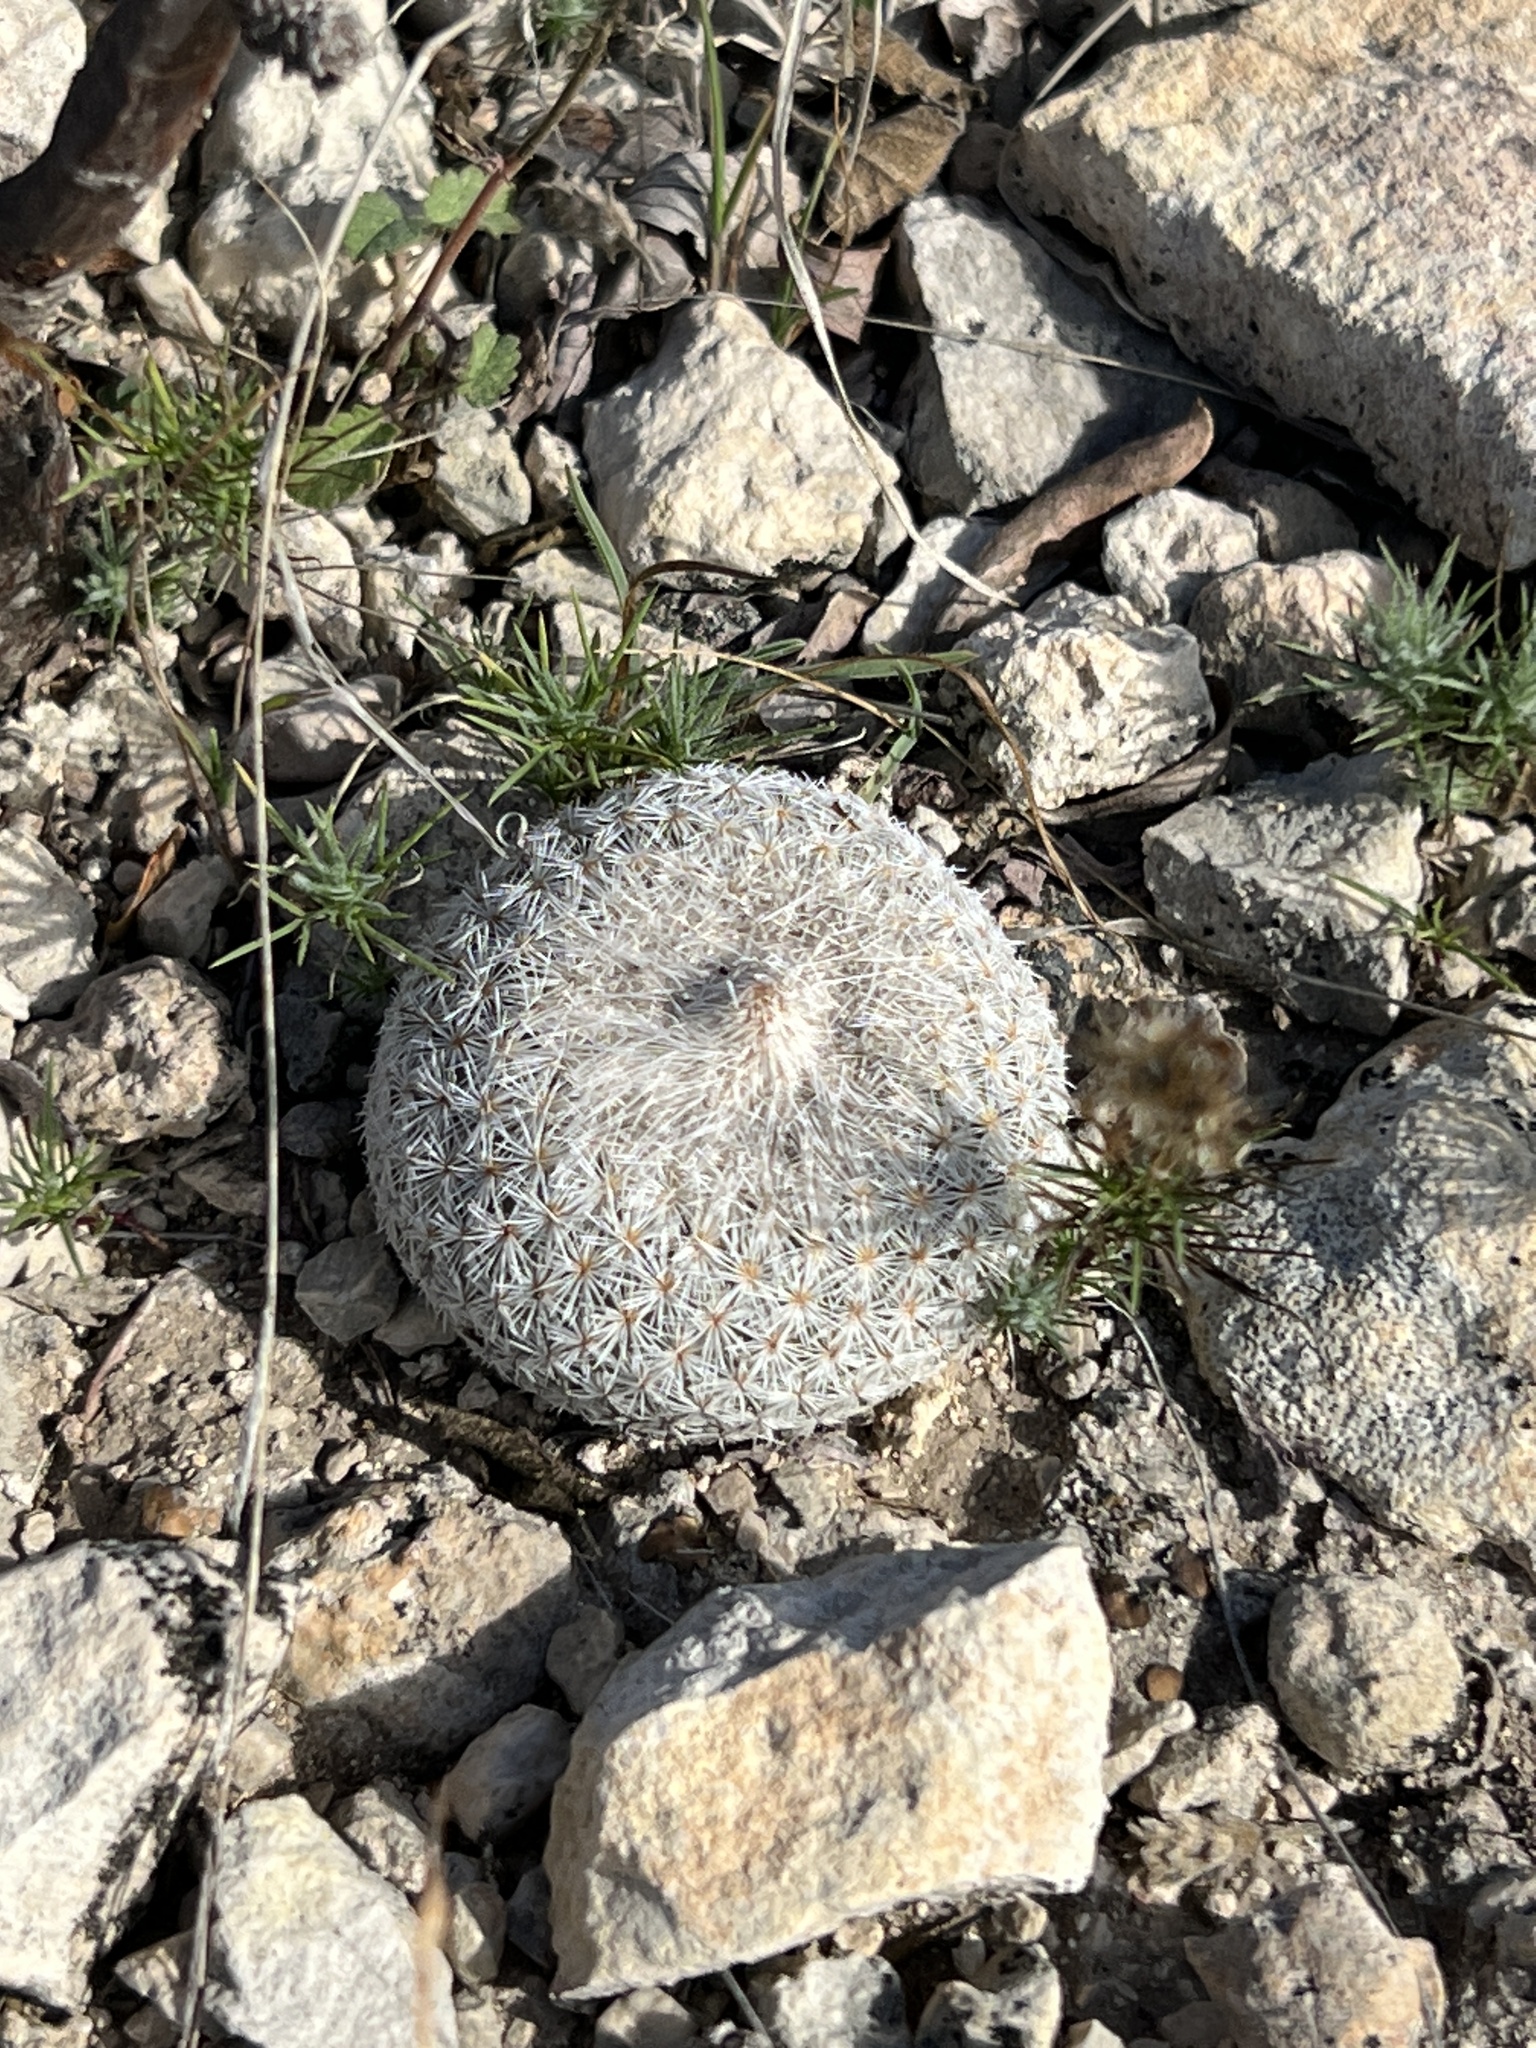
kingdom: Plantae
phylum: Tracheophyta
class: Magnoliopsida
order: Caryophyllales
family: Cactaceae
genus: Epithelantha
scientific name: Epithelantha micromeris
